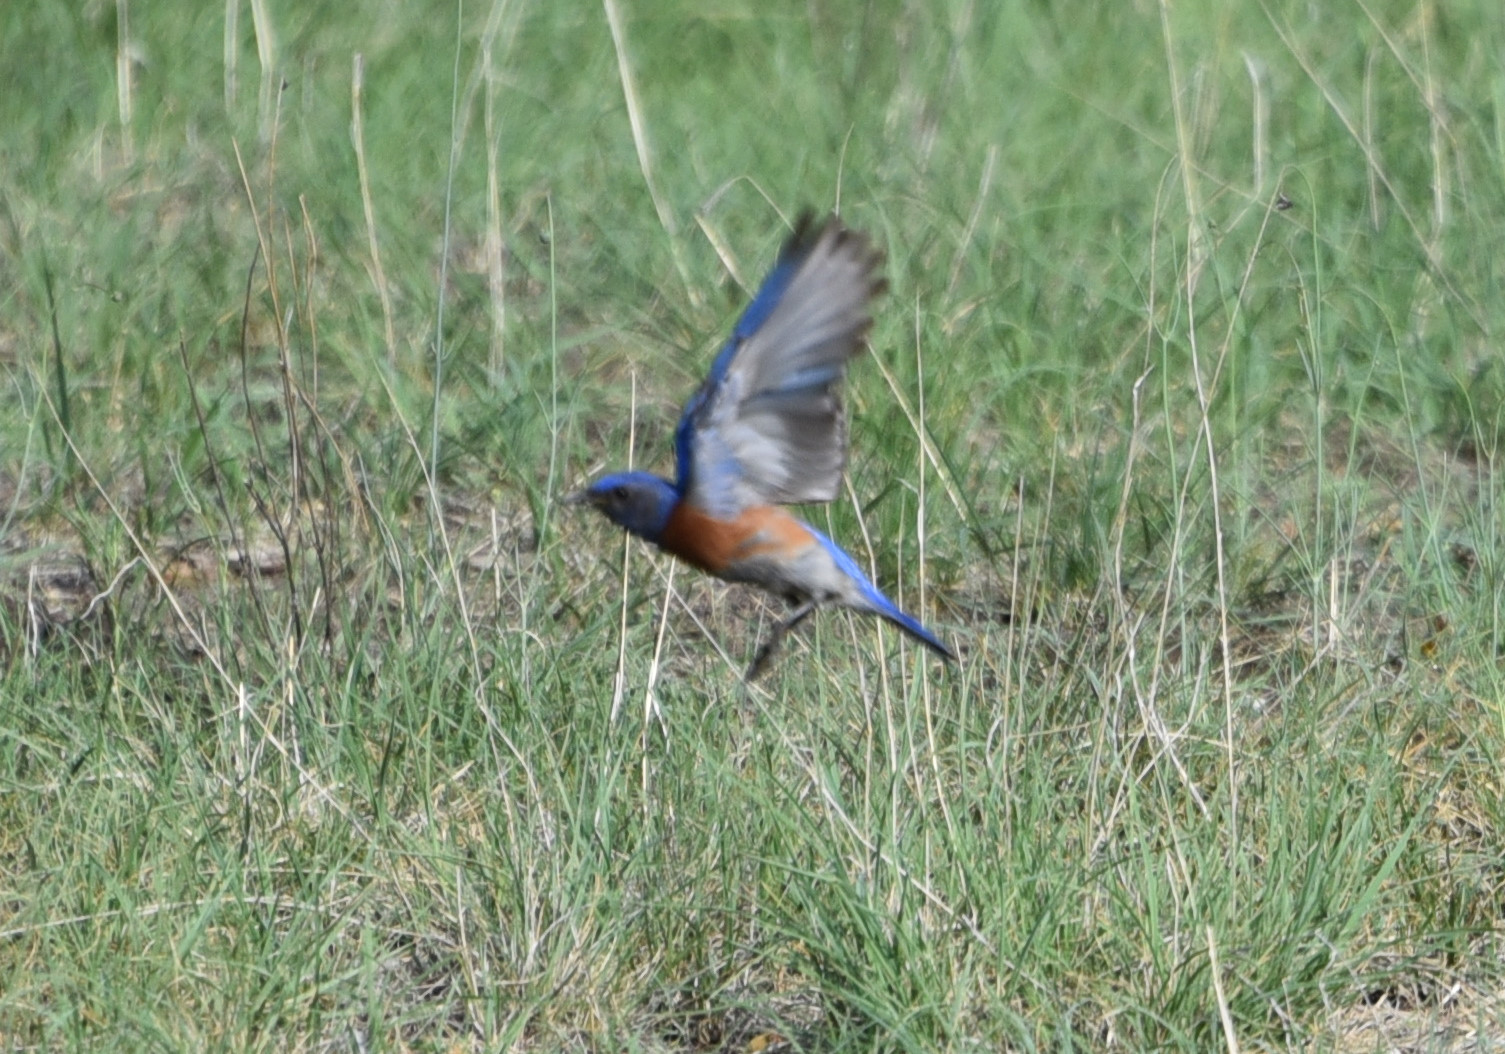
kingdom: Animalia
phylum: Chordata
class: Aves
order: Passeriformes
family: Turdidae
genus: Sialia
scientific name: Sialia mexicana
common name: Western bluebird
